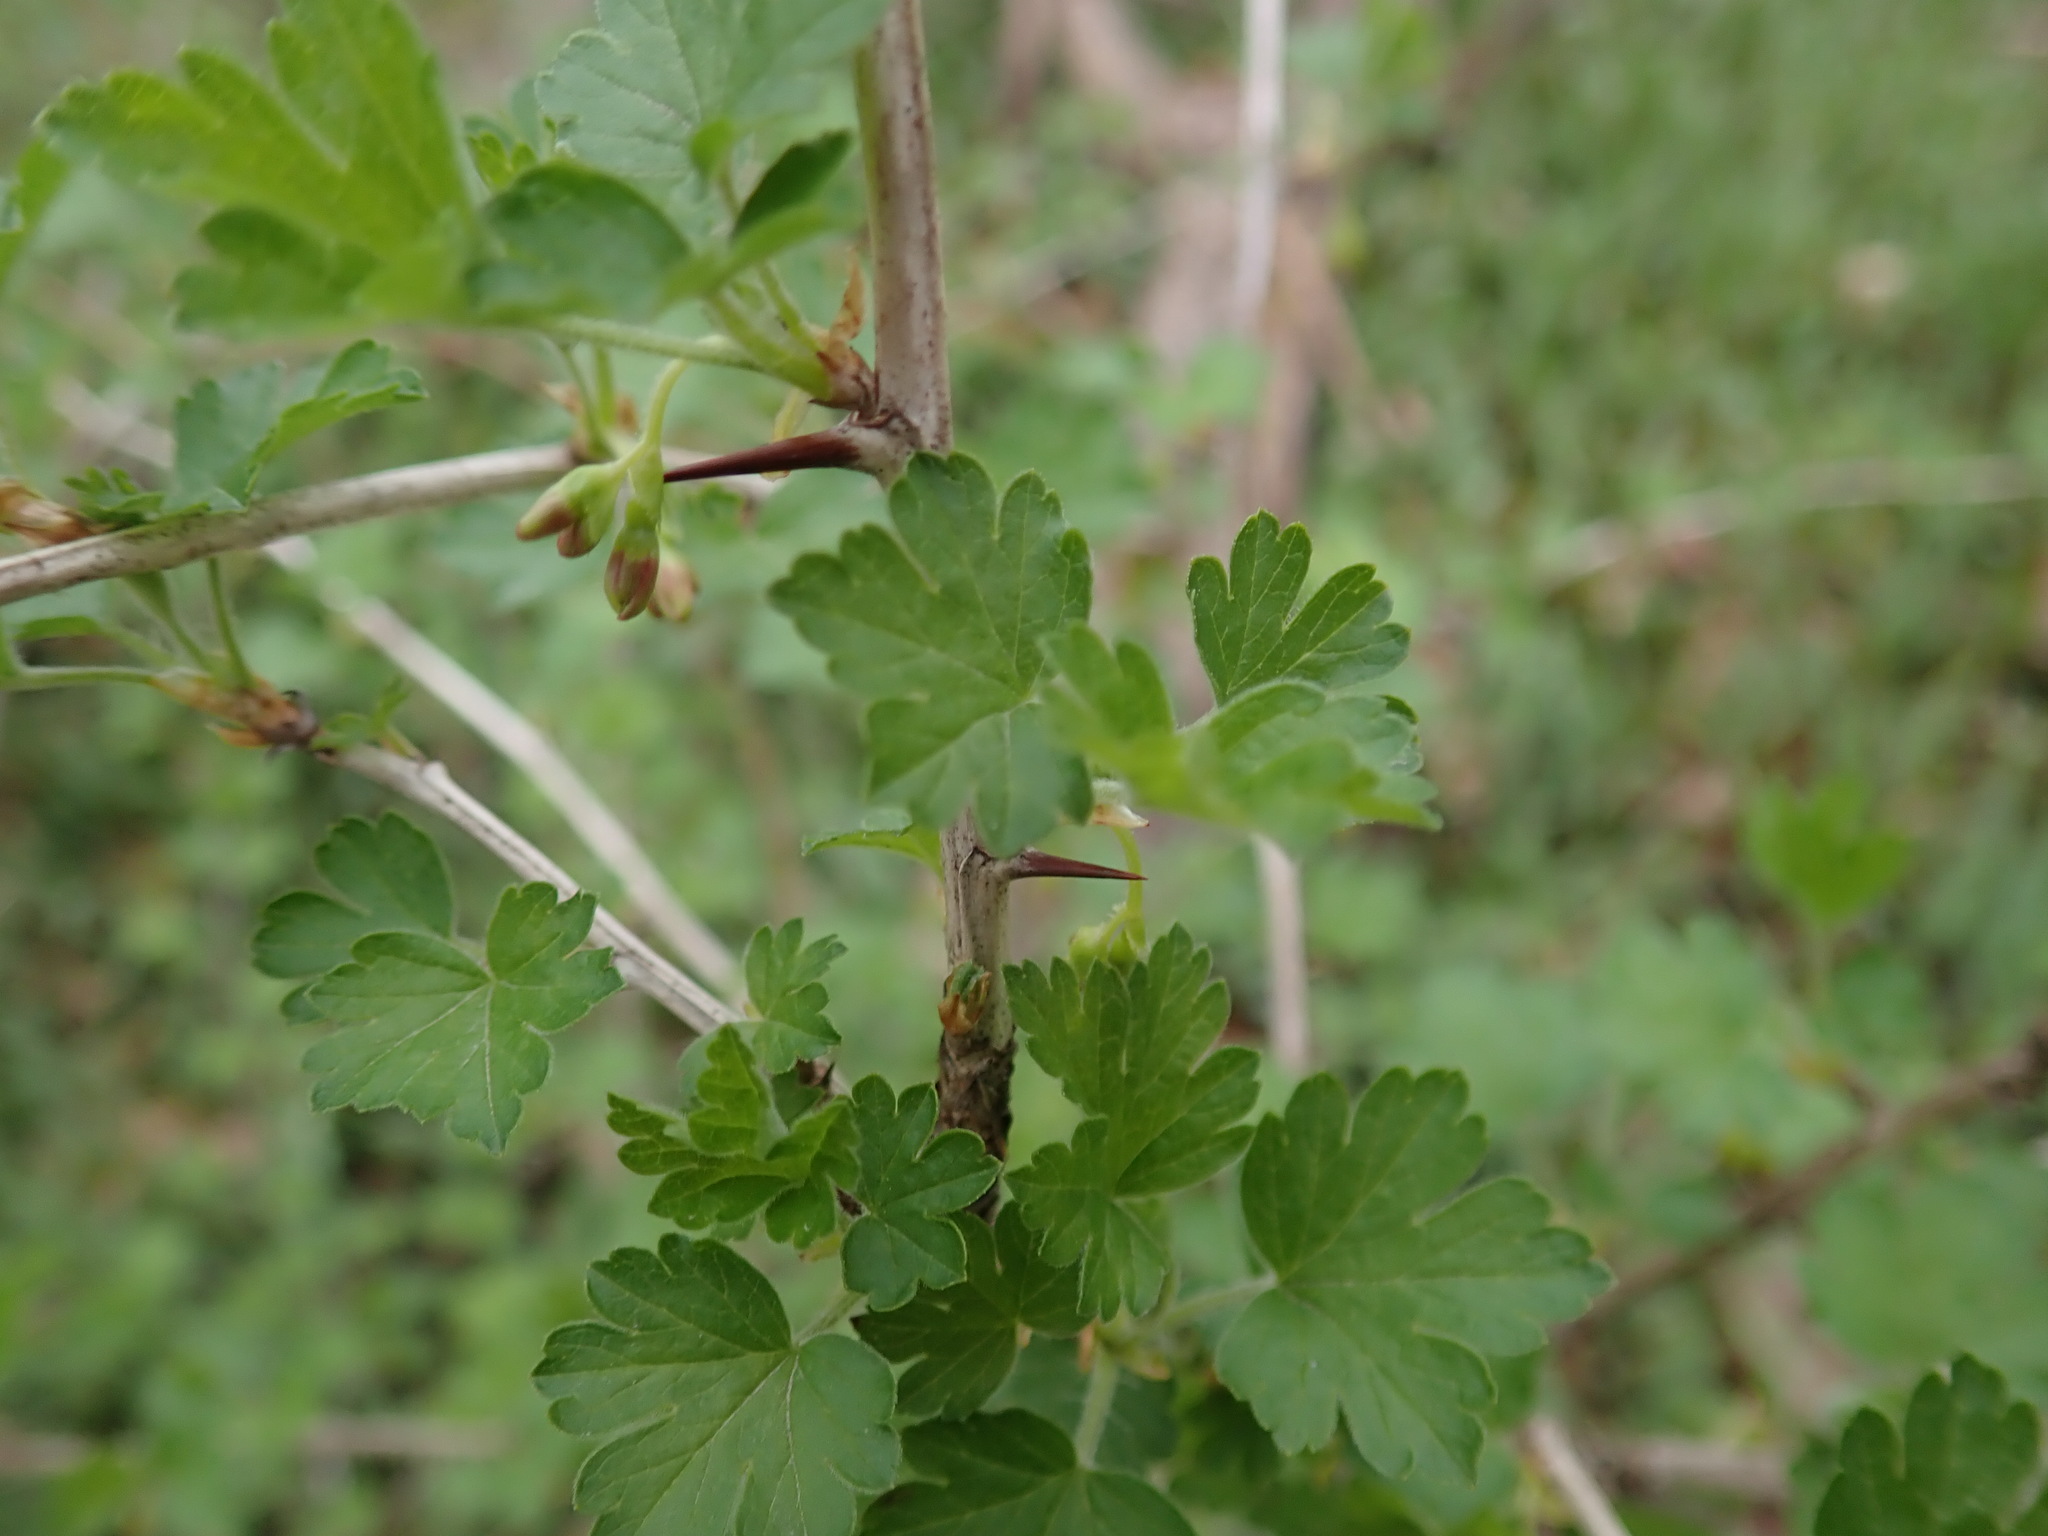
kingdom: Plantae
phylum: Tracheophyta
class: Magnoliopsida
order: Saxifragales
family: Grossulariaceae
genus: Ribes
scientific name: Ribes missouriense
